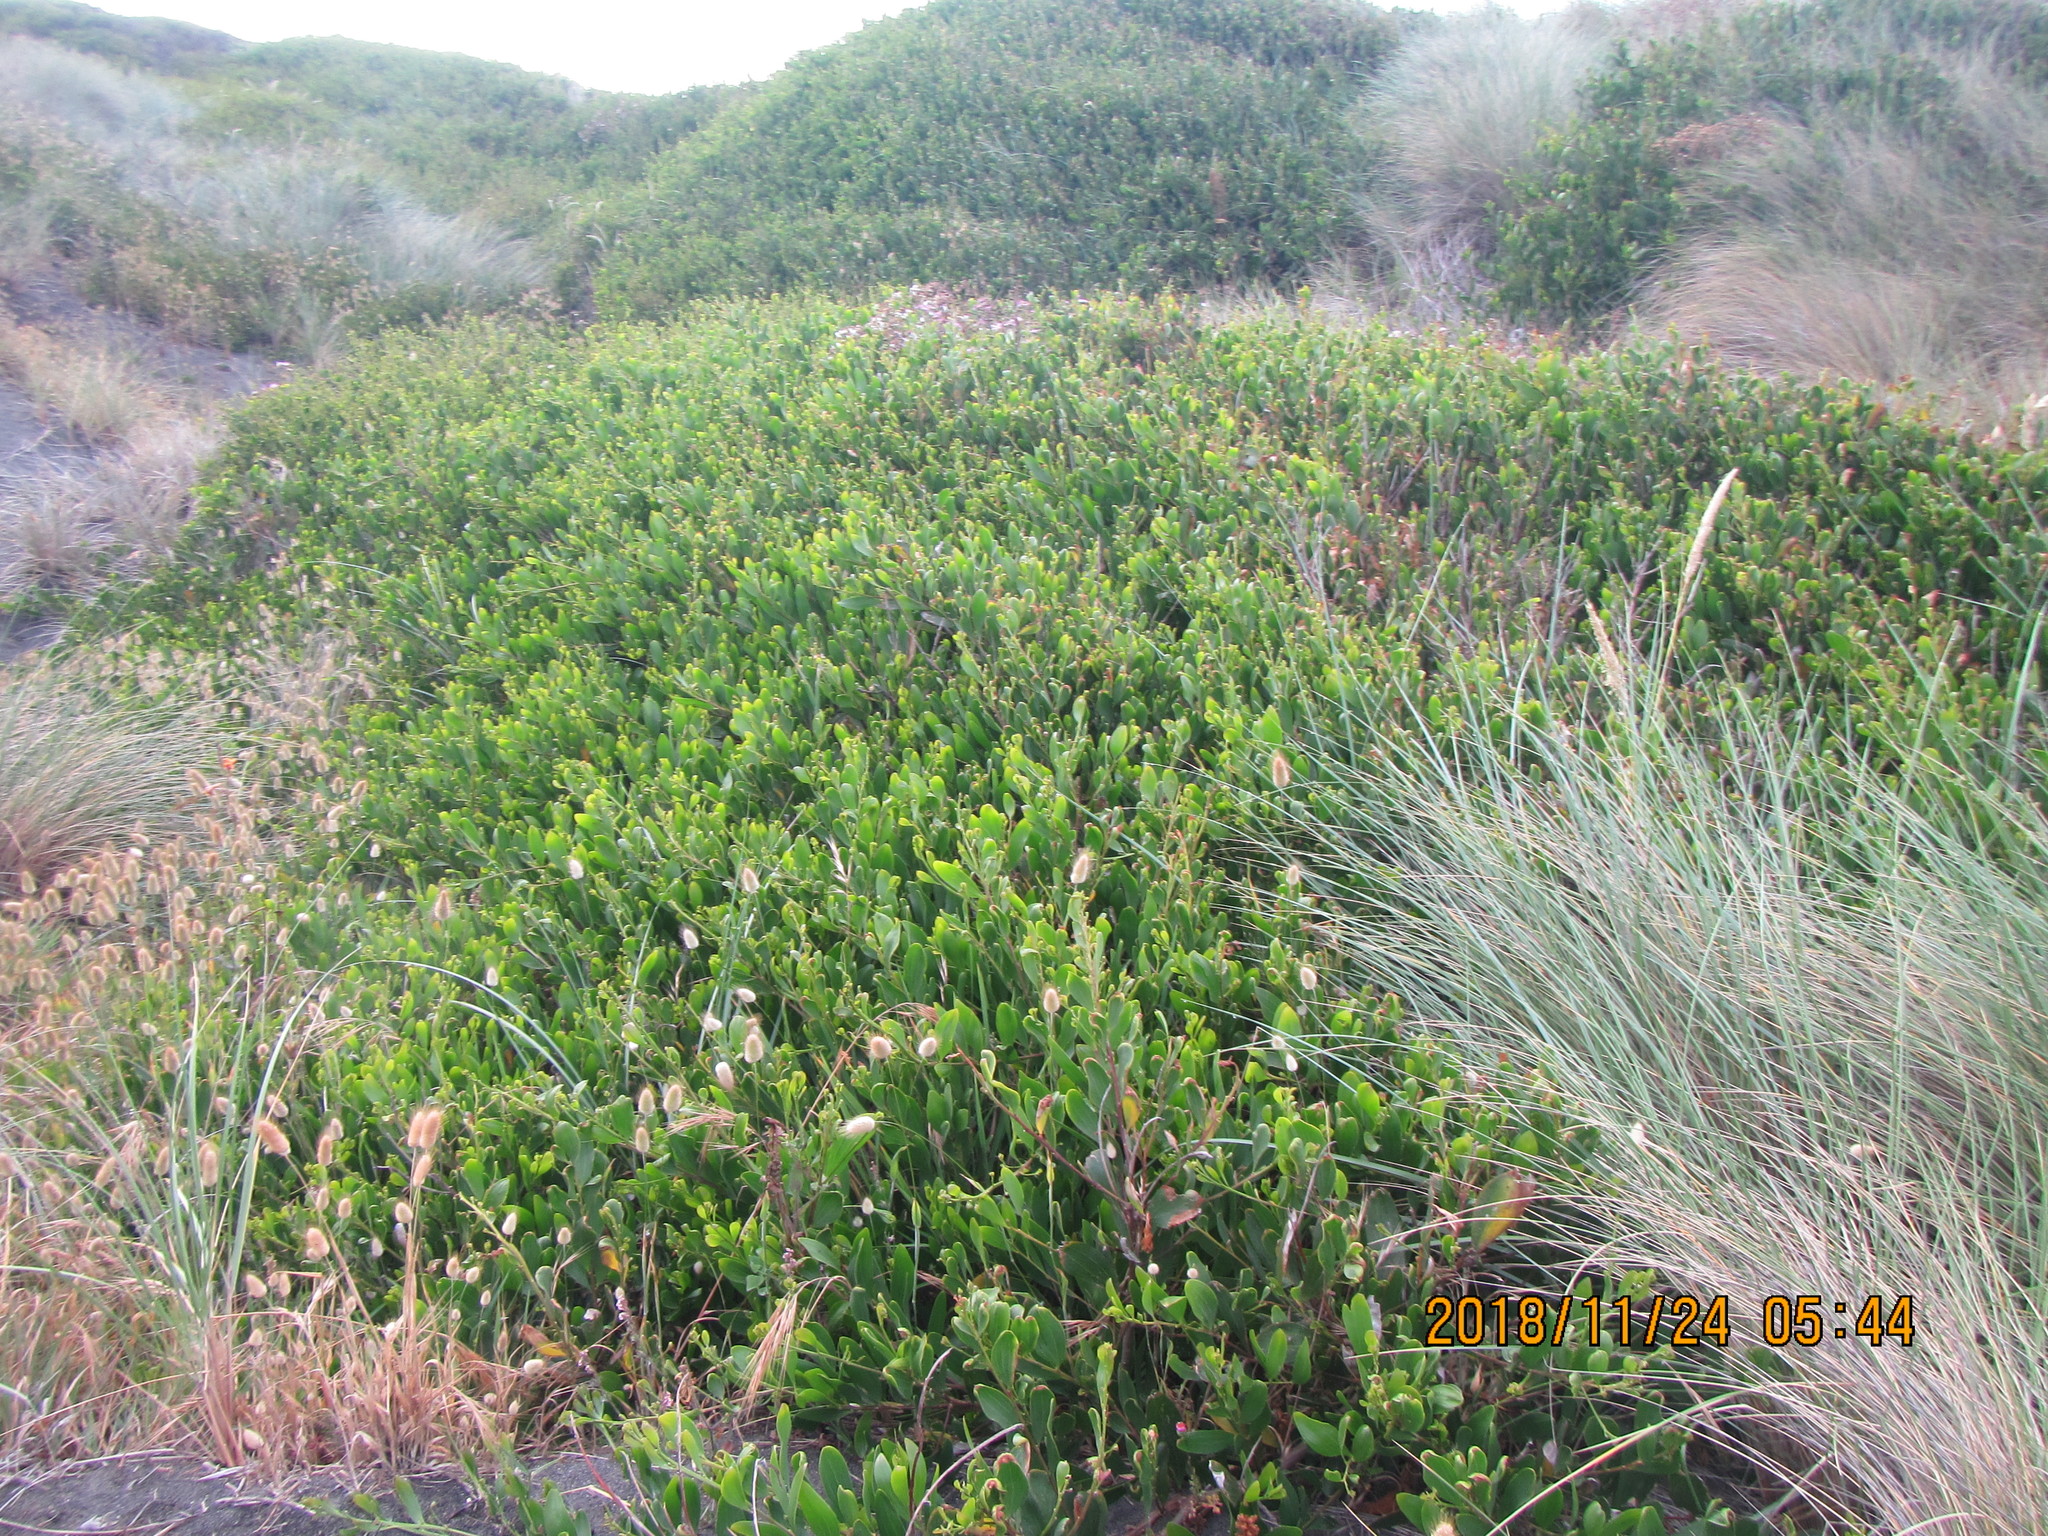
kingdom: Plantae
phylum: Tracheophyta
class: Magnoliopsida
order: Fabales
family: Fabaceae
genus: Acacia
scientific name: Acacia longifolia
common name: Sydney golden wattle
